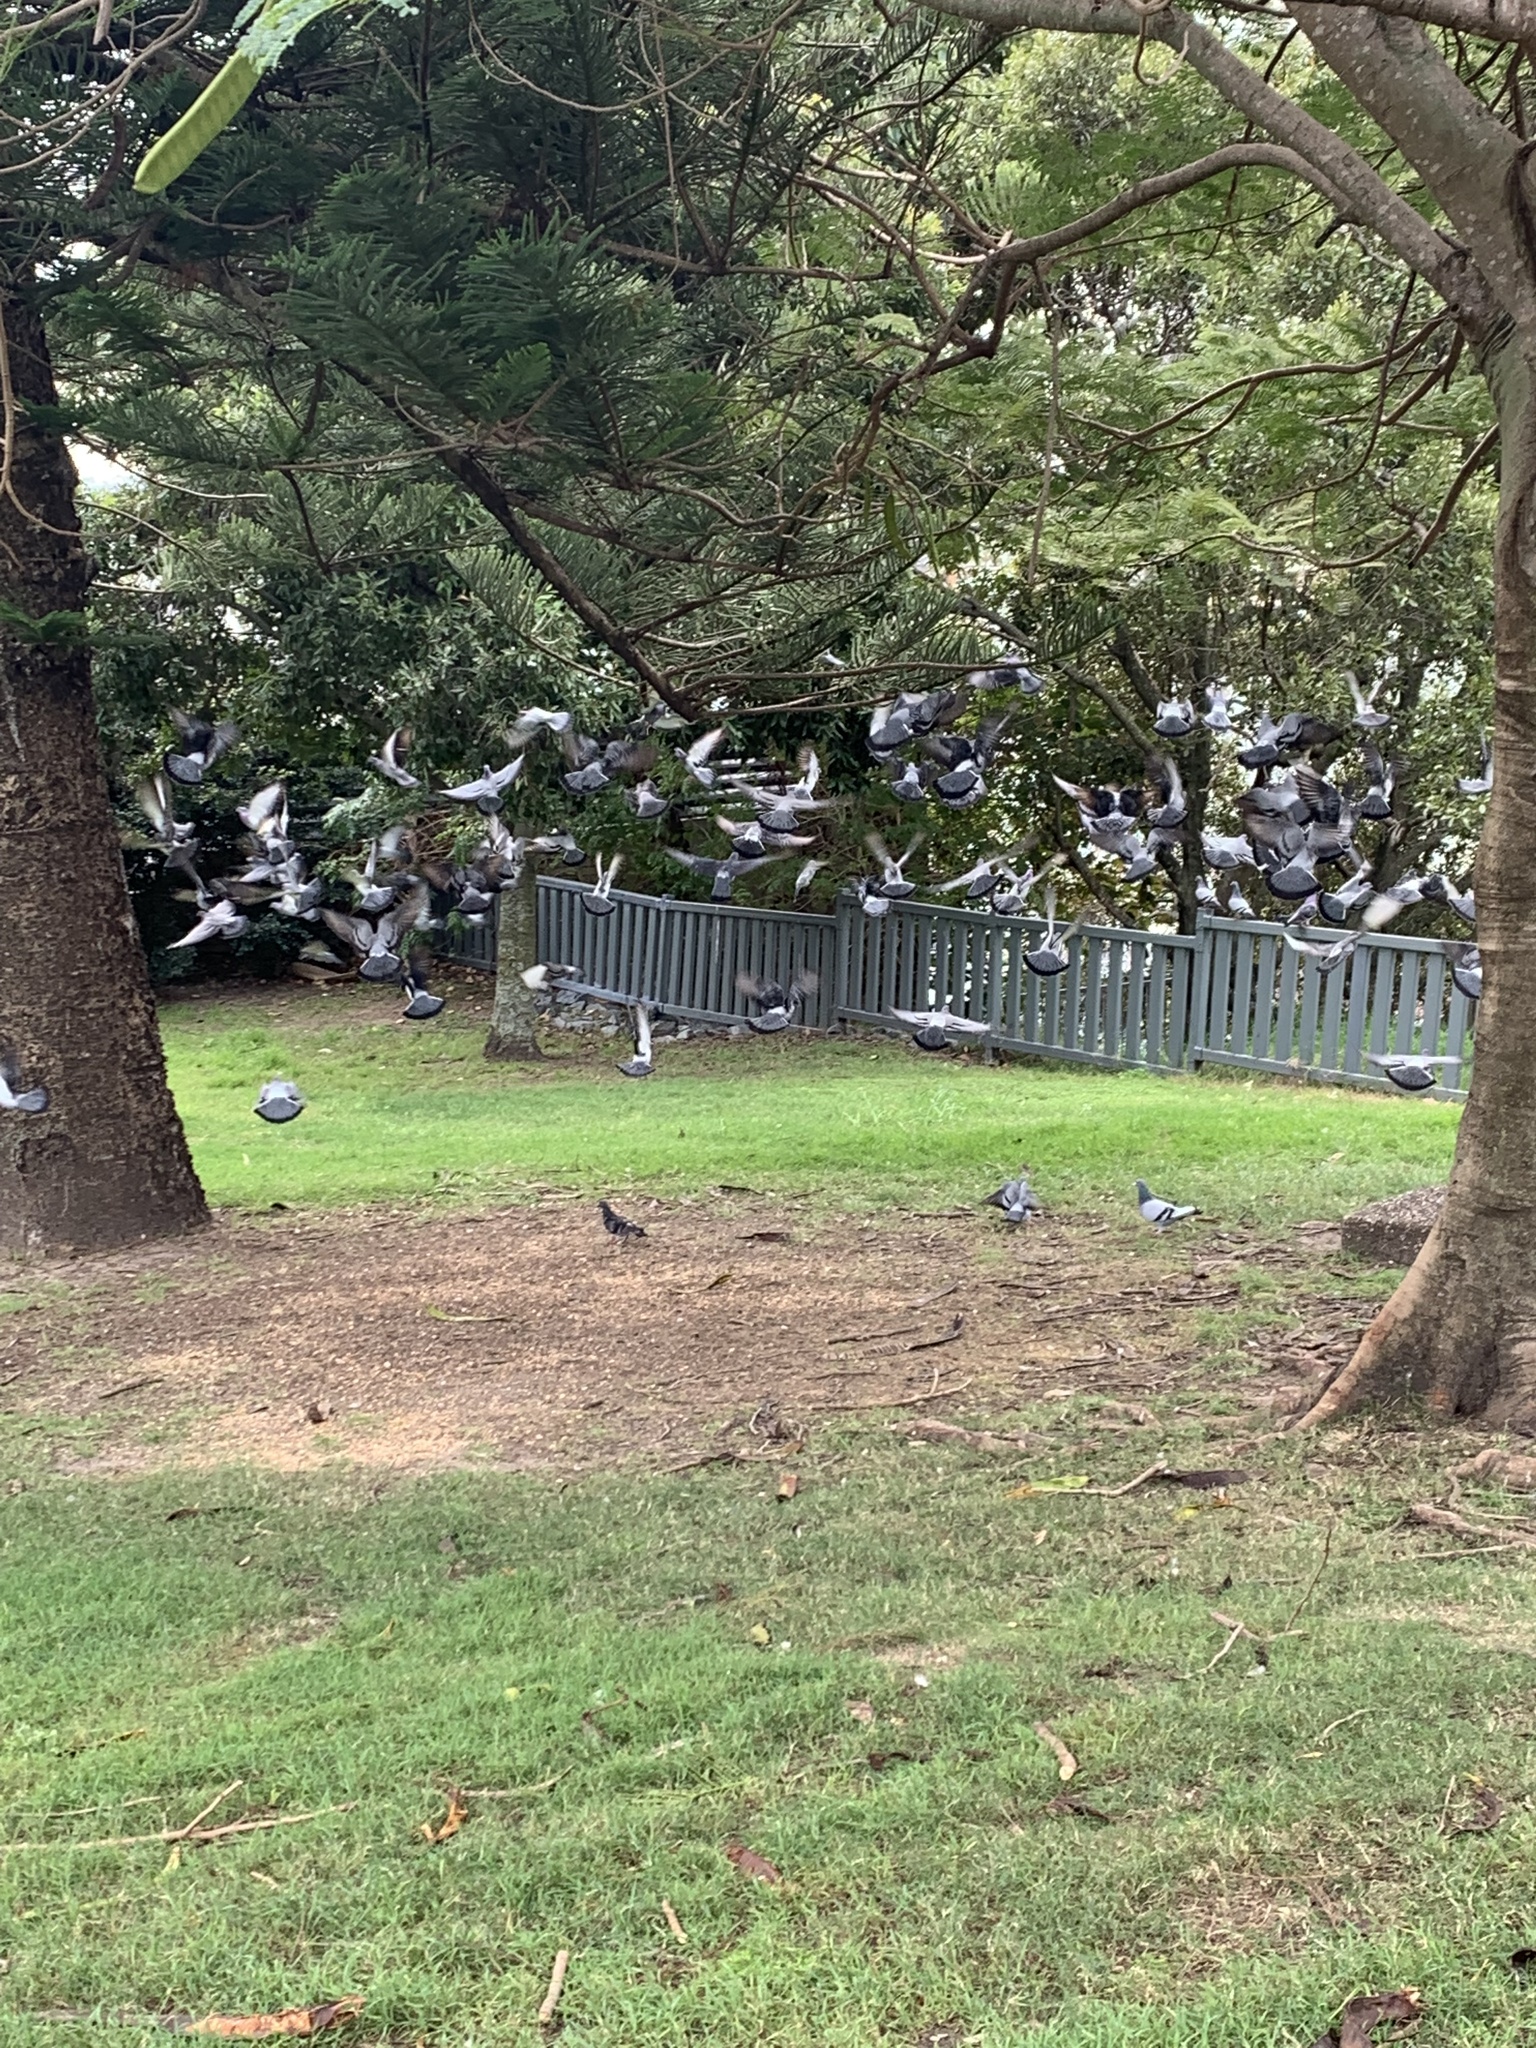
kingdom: Animalia
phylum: Chordata
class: Aves
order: Columbiformes
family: Columbidae
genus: Columba
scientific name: Columba livia
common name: Rock pigeon
